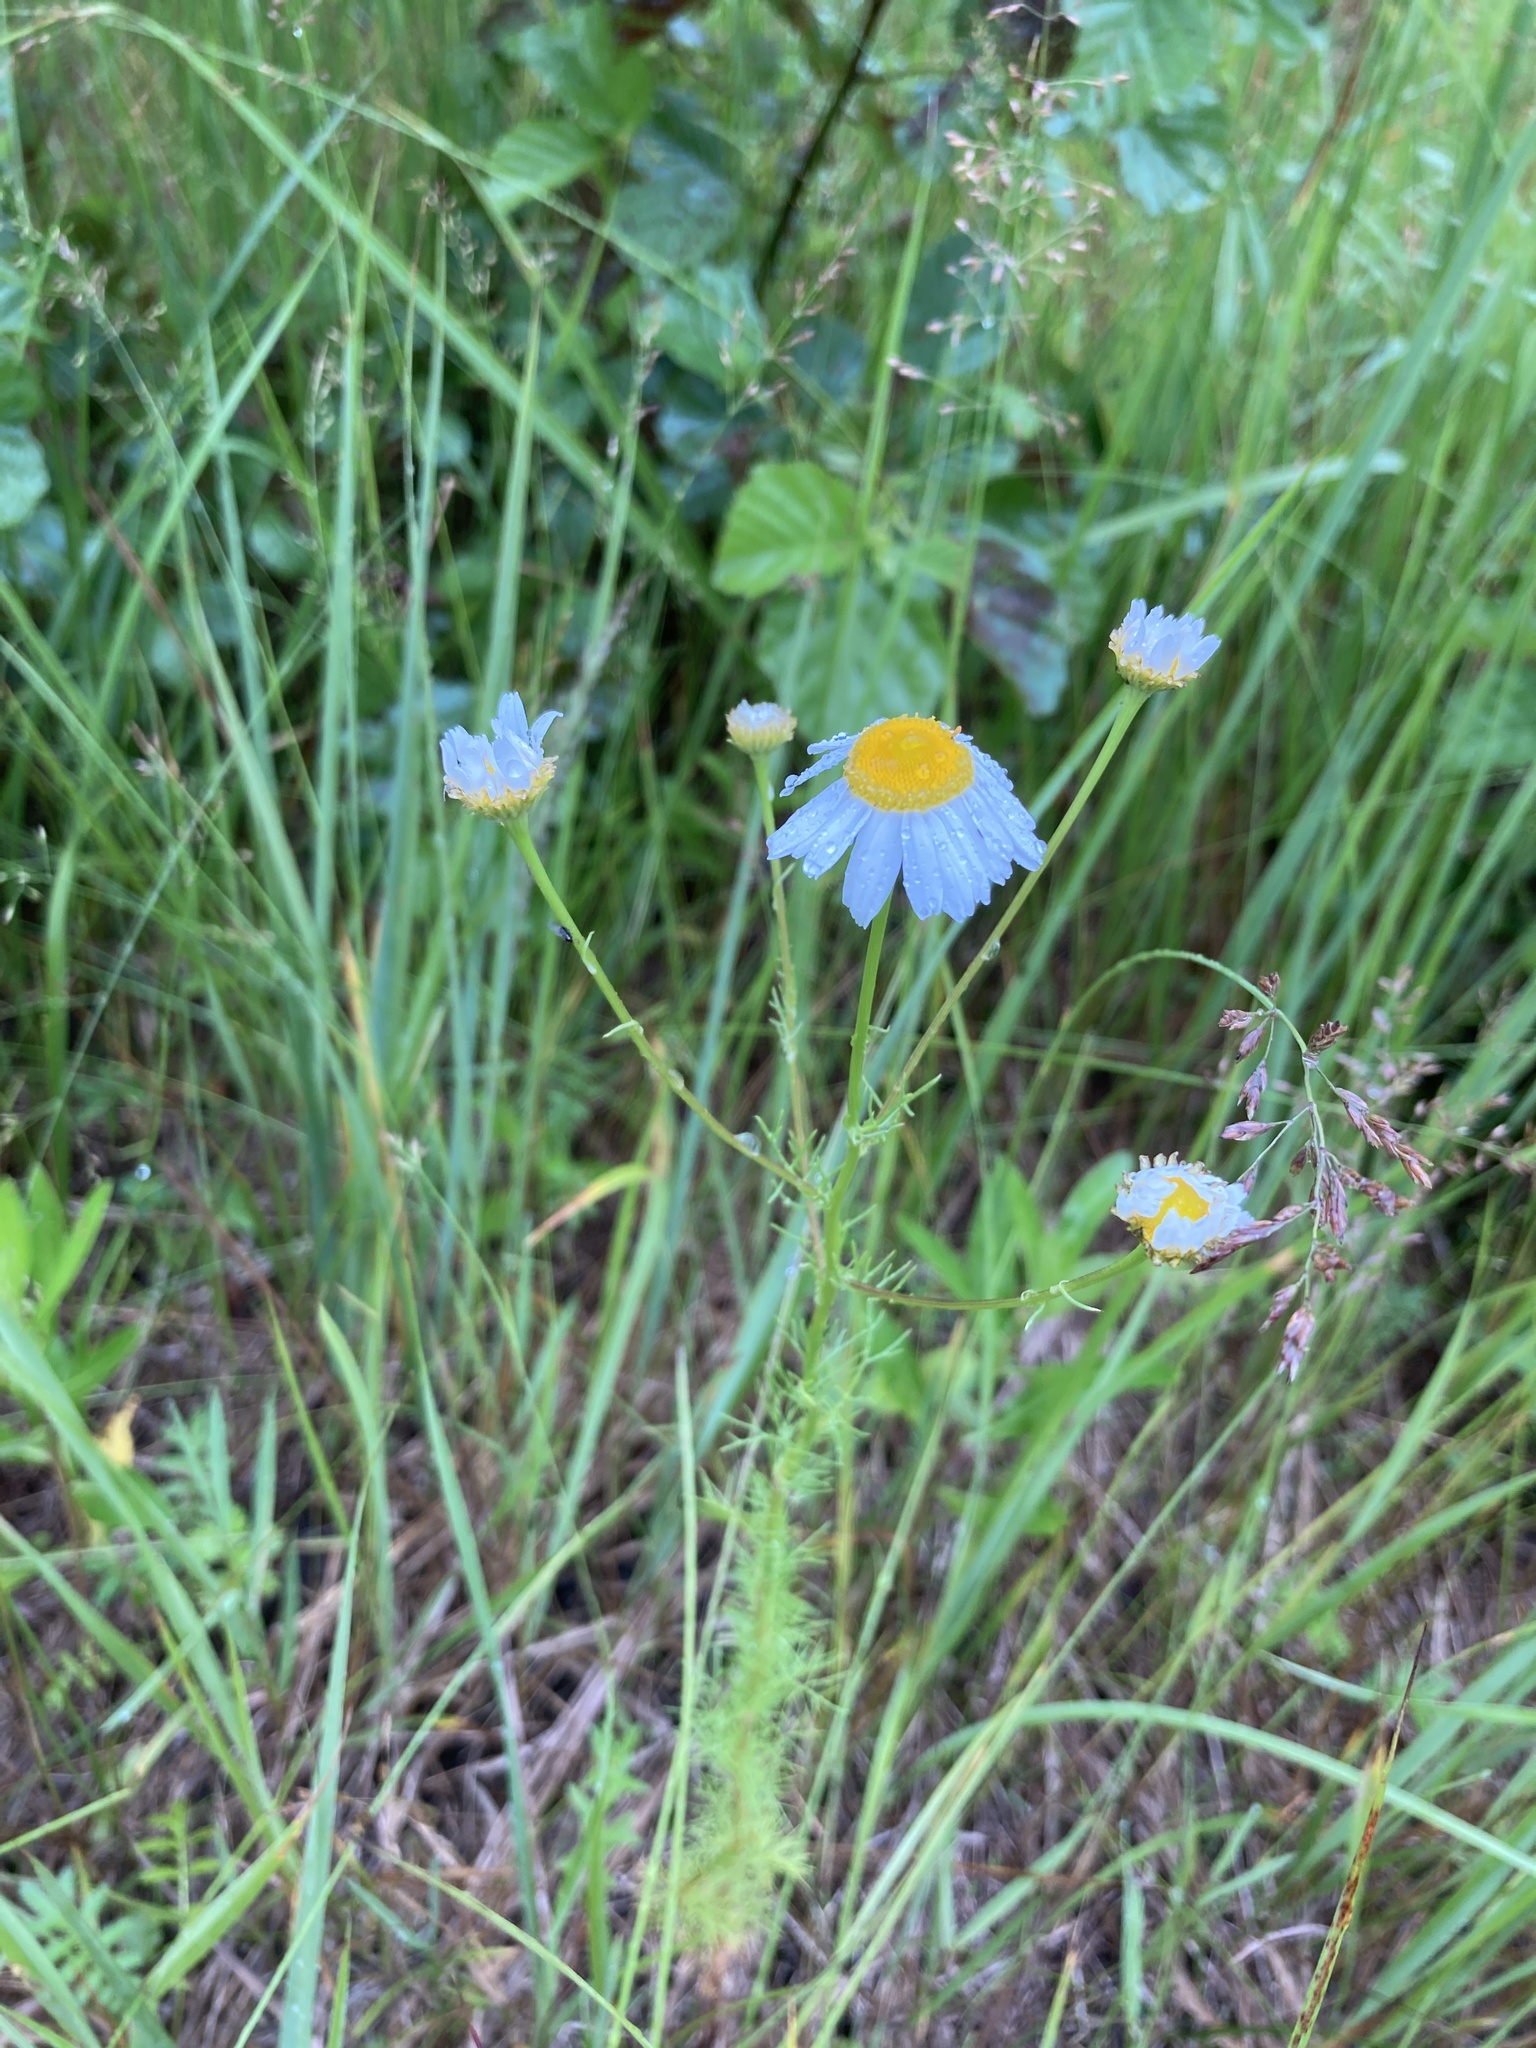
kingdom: Plantae
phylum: Tracheophyta
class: Magnoliopsida
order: Asterales
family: Asteraceae
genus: Tripleurospermum
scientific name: Tripleurospermum inodorum
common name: Scentless mayweed
